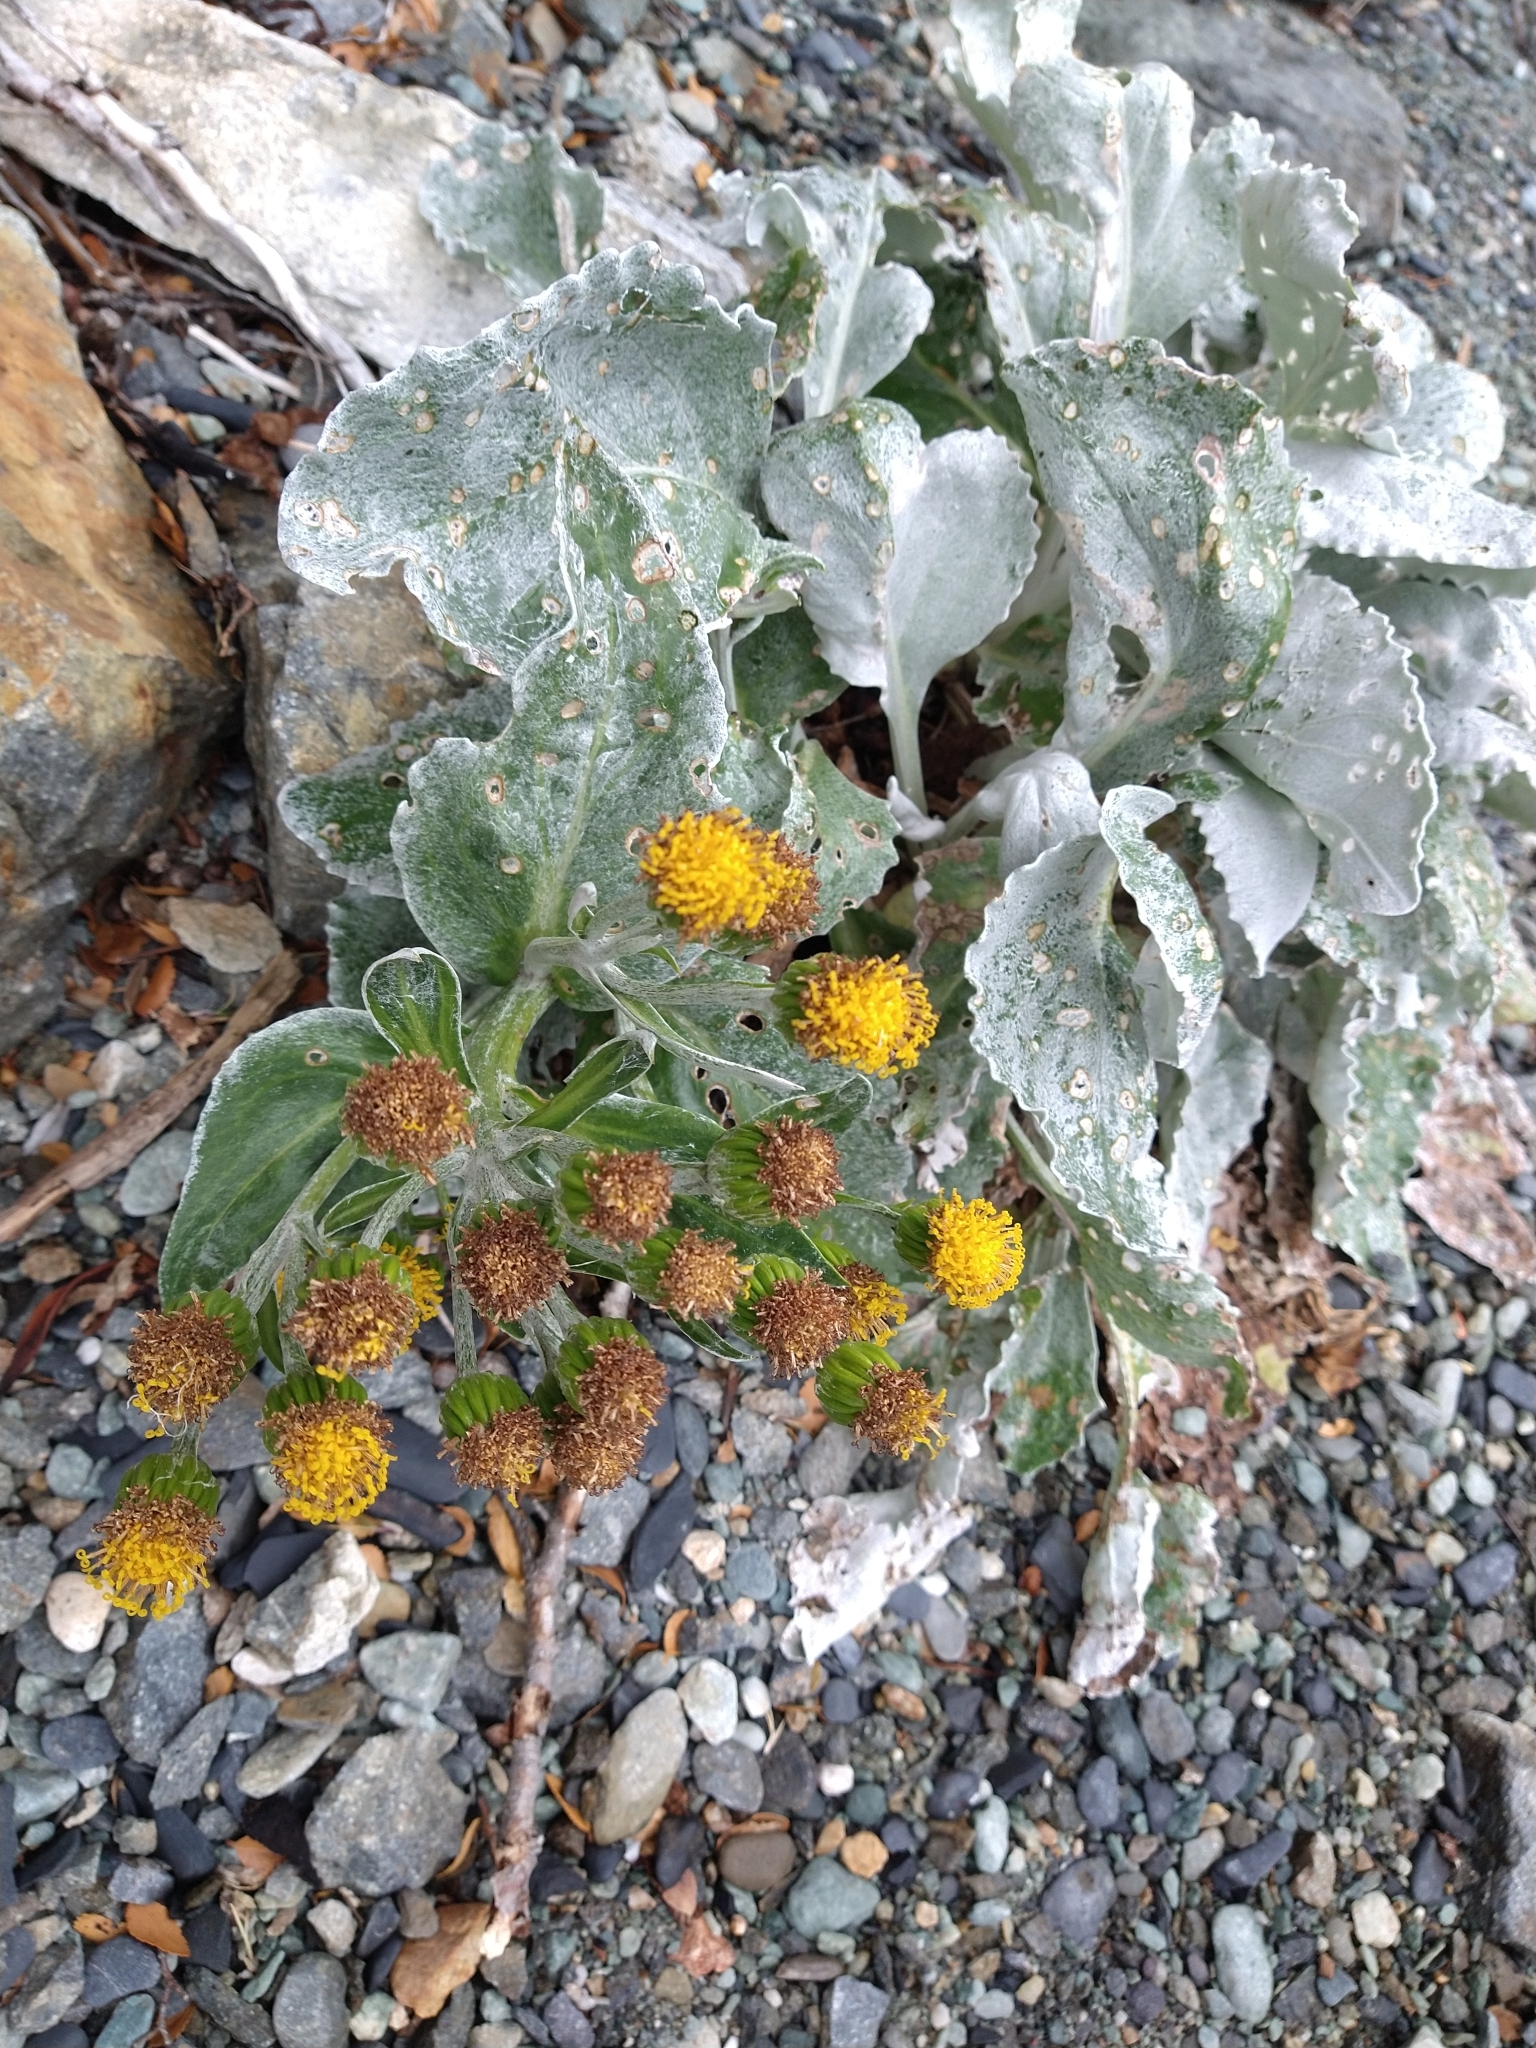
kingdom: Plantae
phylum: Tracheophyta
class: Magnoliopsida
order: Asterales
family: Asteraceae
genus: Senecio
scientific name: Senecio candidans
